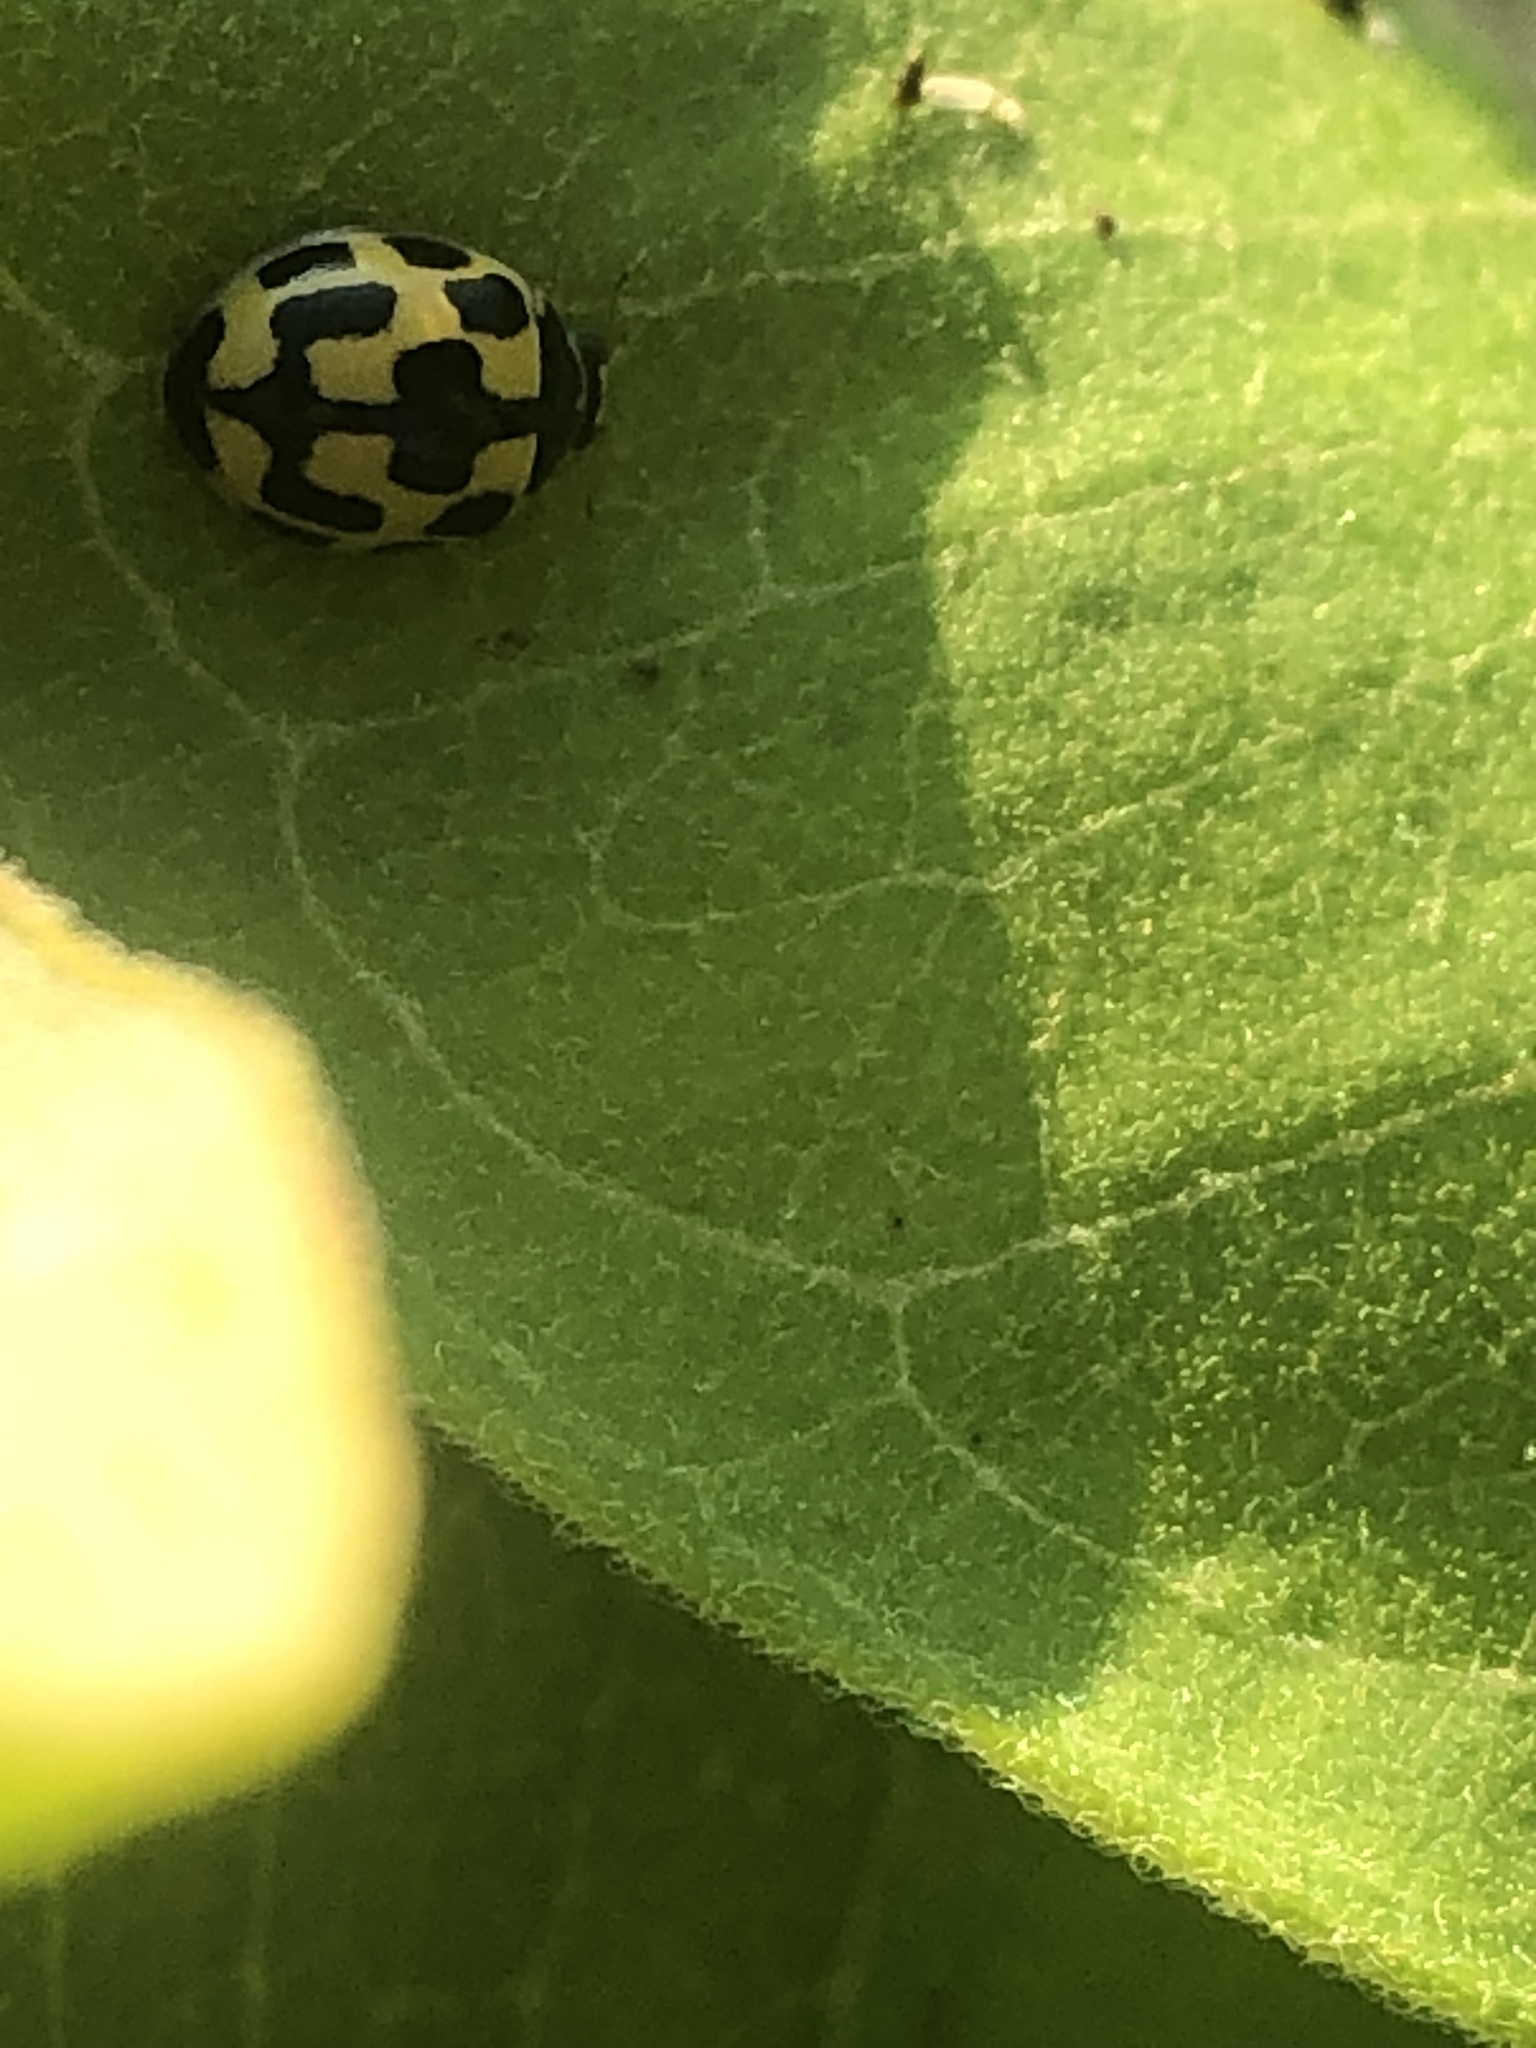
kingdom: Animalia
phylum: Arthropoda
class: Insecta
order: Coleoptera
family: Coccinellidae
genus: Propylaea
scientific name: Propylaea quatuordecimpunctata
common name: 14-spotted ladybird beetle
